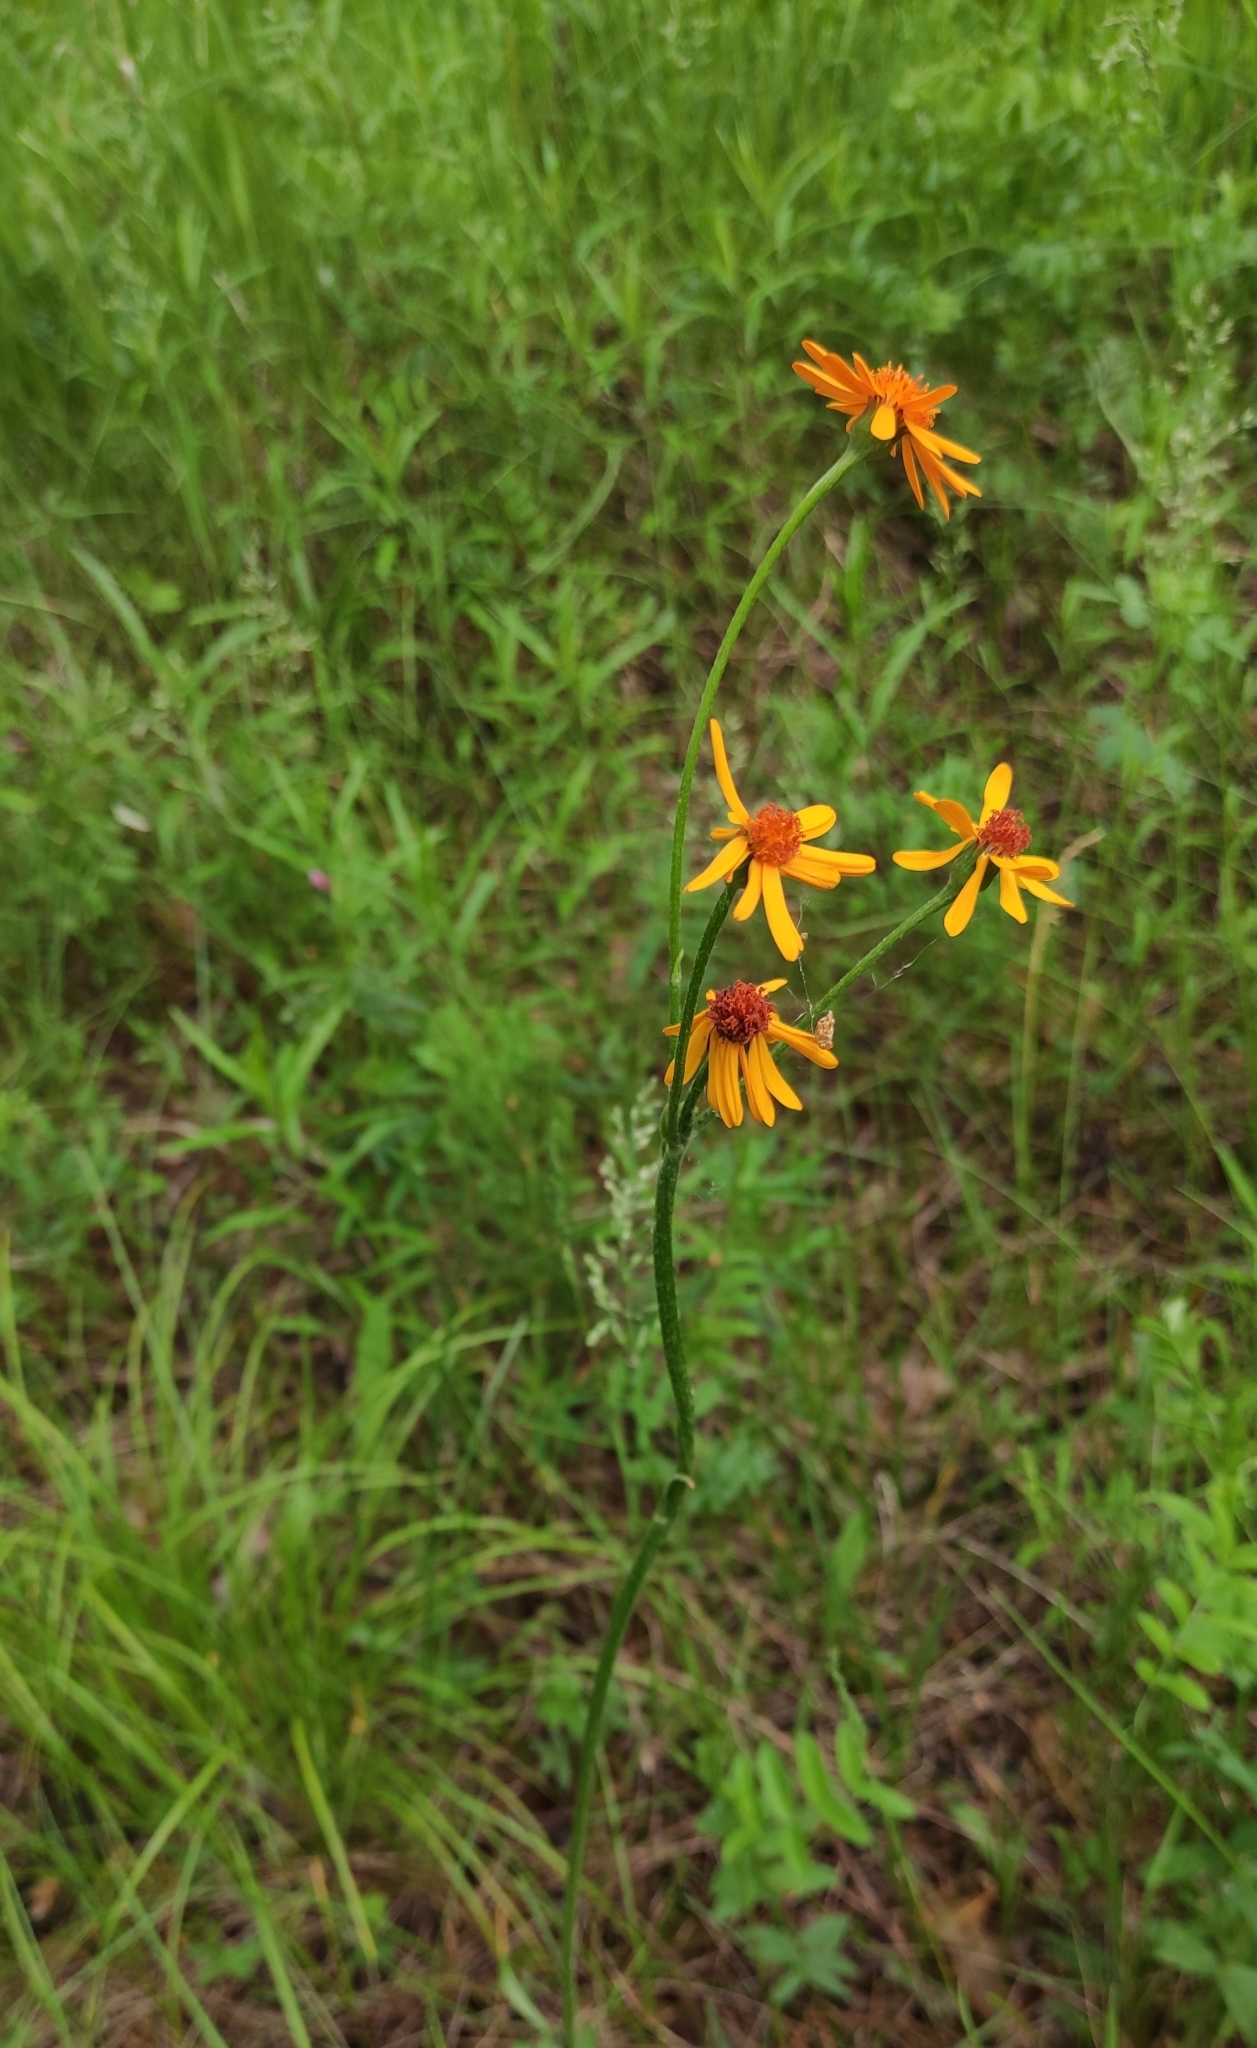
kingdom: Plantae
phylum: Tracheophyta
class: Magnoliopsida
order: Asterales
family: Asteraceae
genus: Tephroseris
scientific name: Tephroseris porphyrantha
